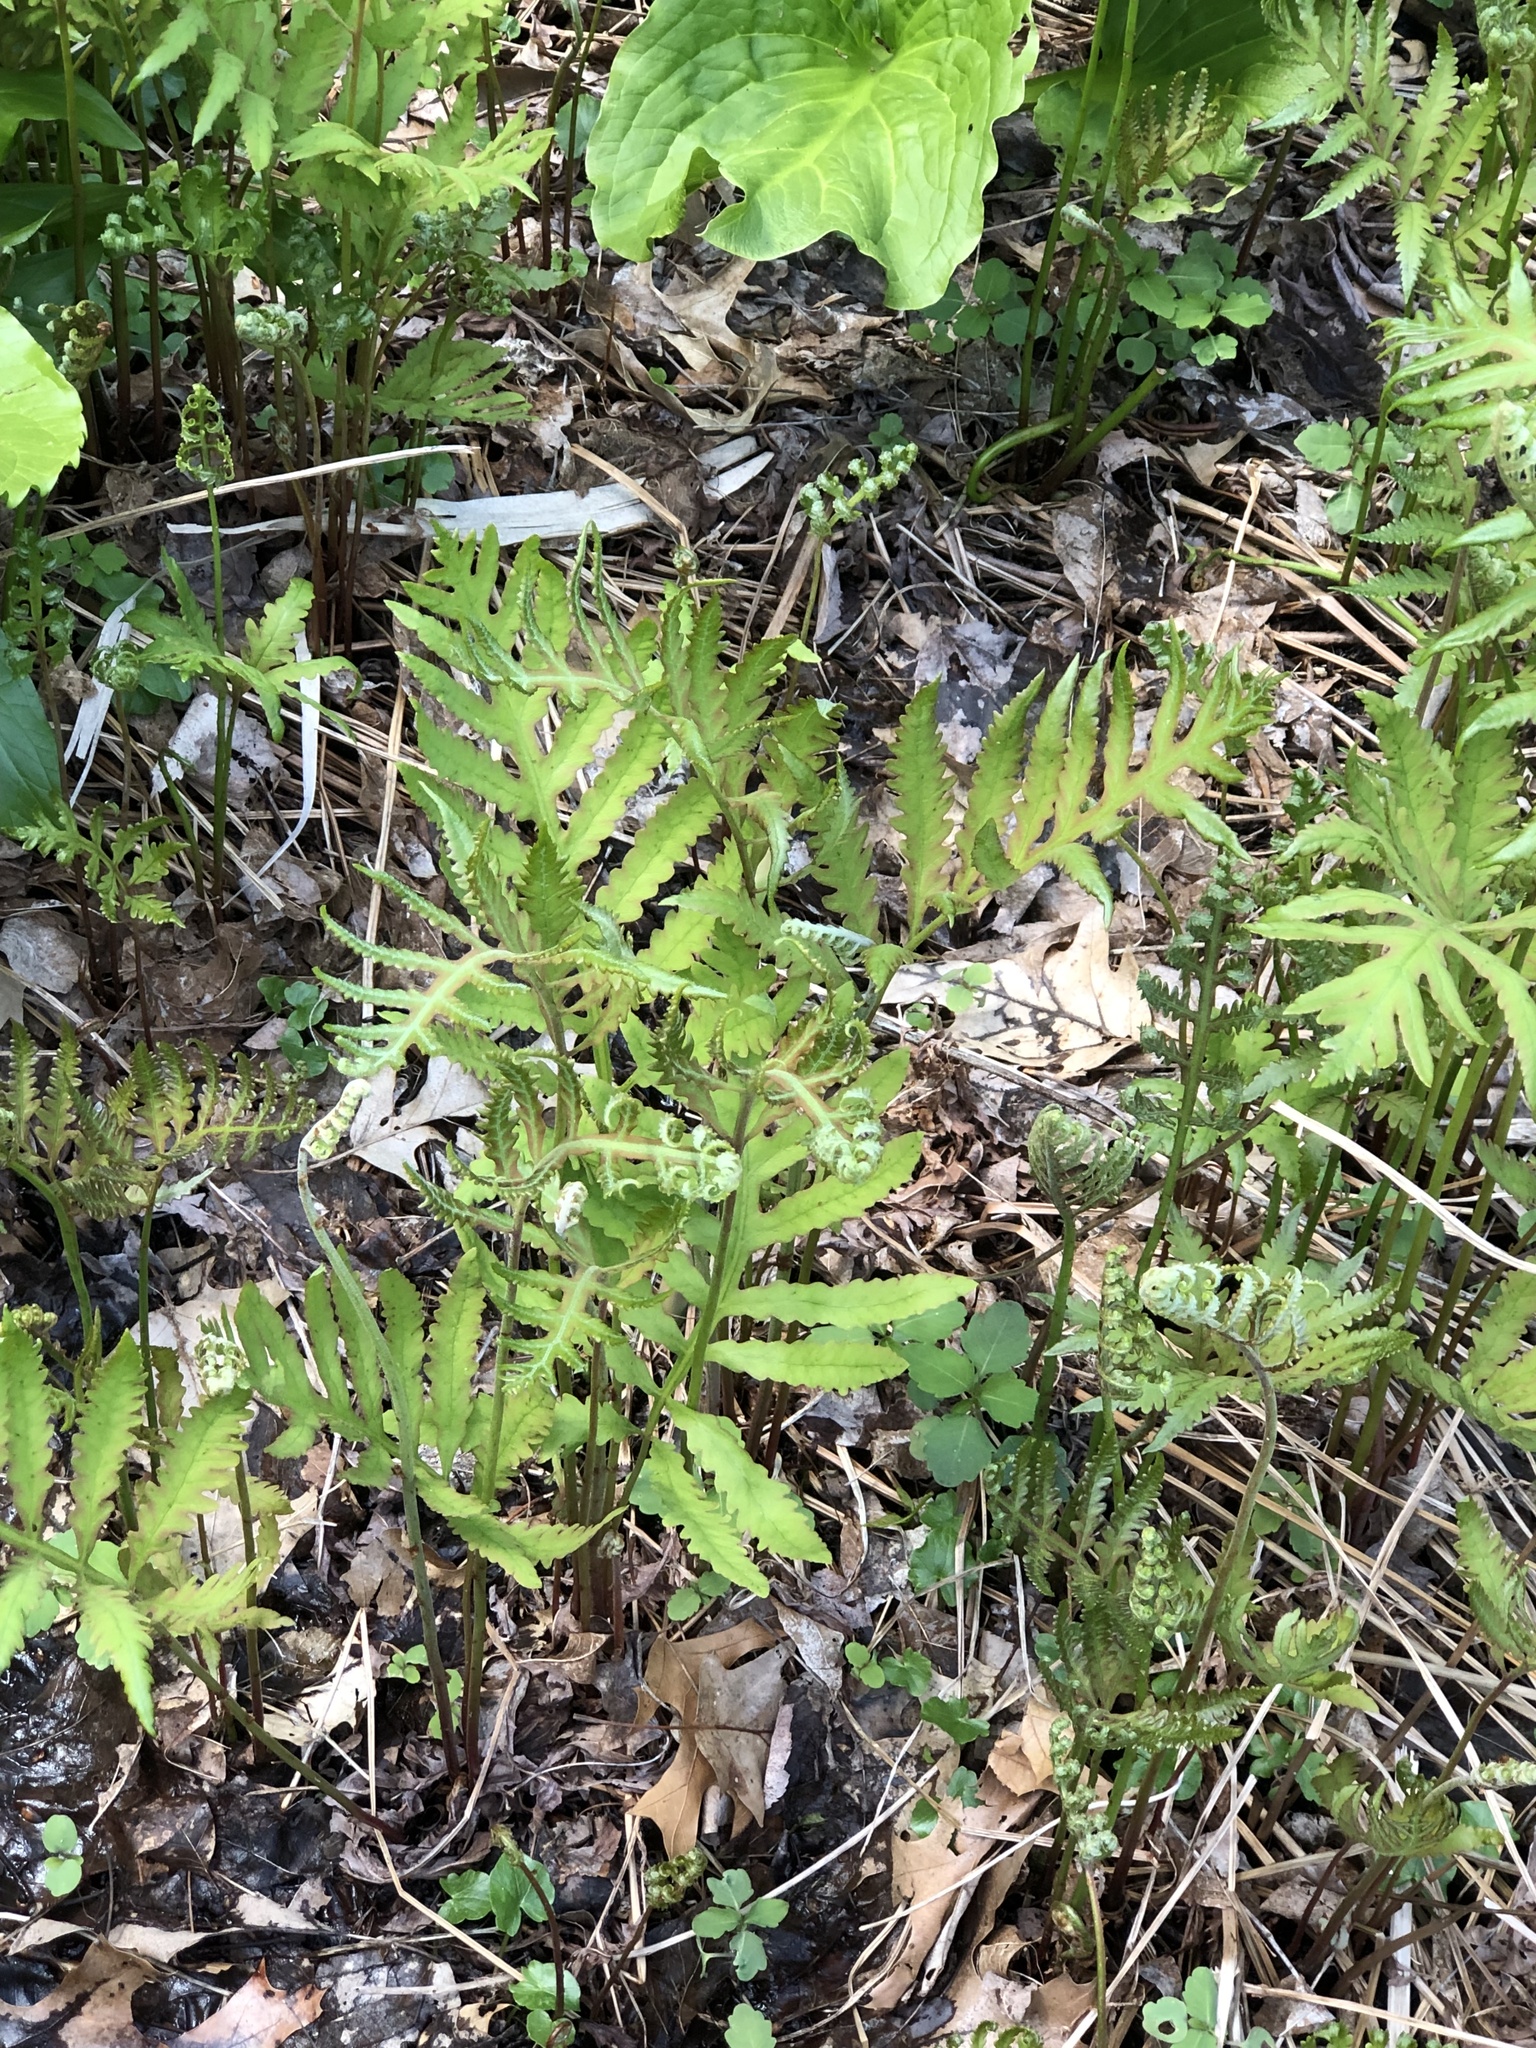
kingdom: Plantae
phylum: Tracheophyta
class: Polypodiopsida
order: Polypodiales
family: Onocleaceae
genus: Onoclea
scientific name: Onoclea sensibilis
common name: Sensitive fern
